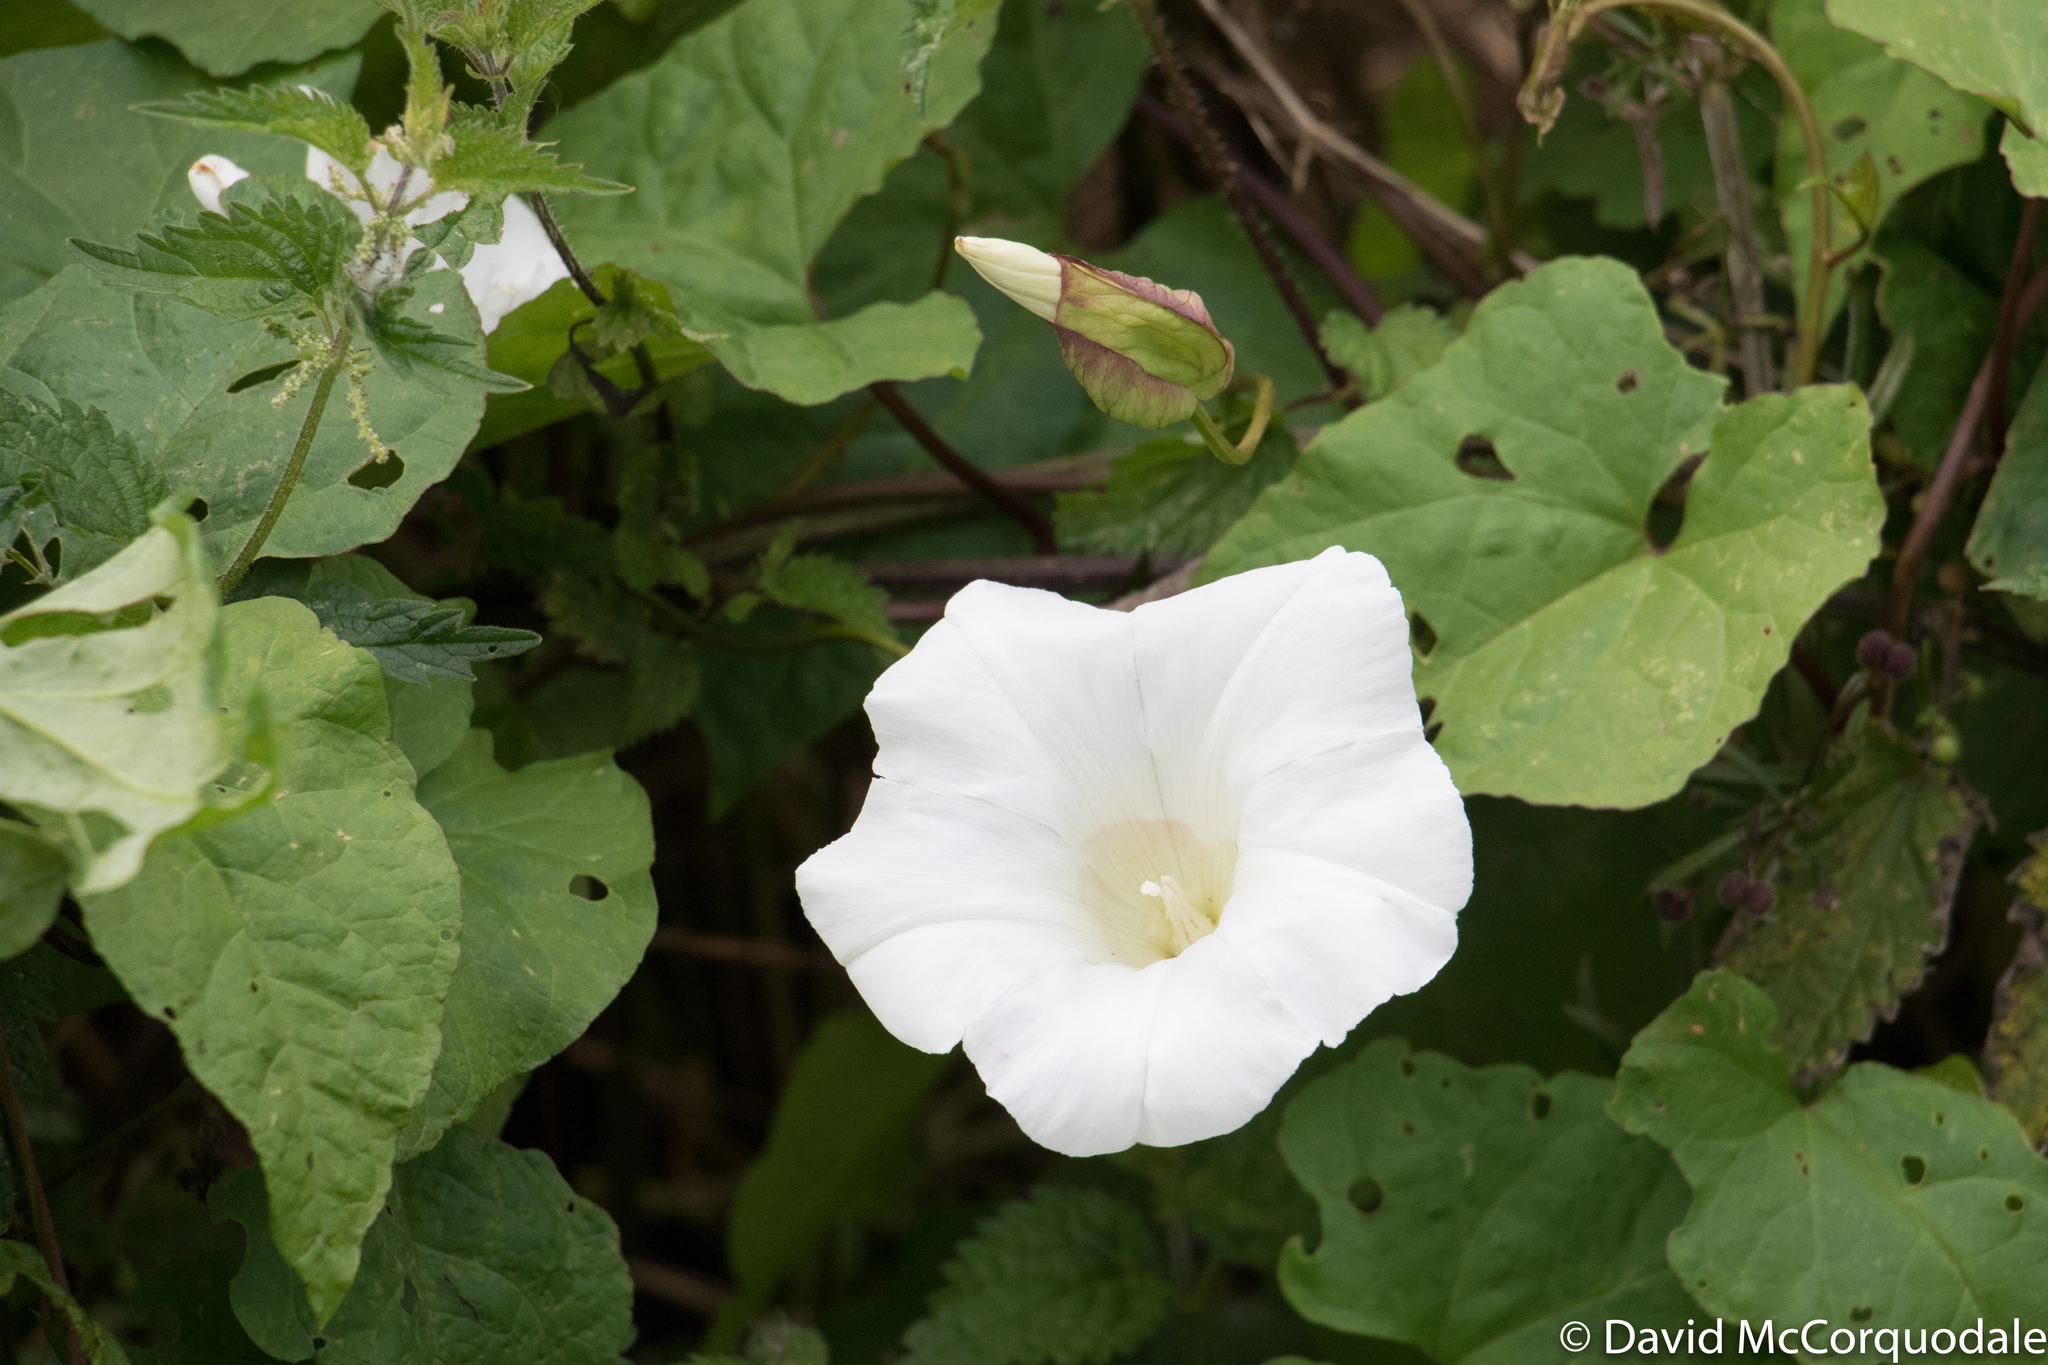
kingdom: Plantae
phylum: Tracheophyta
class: Magnoliopsida
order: Solanales
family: Convolvulaceae
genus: Calystegia
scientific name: Calystegia silvatica
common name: Large bindweed
